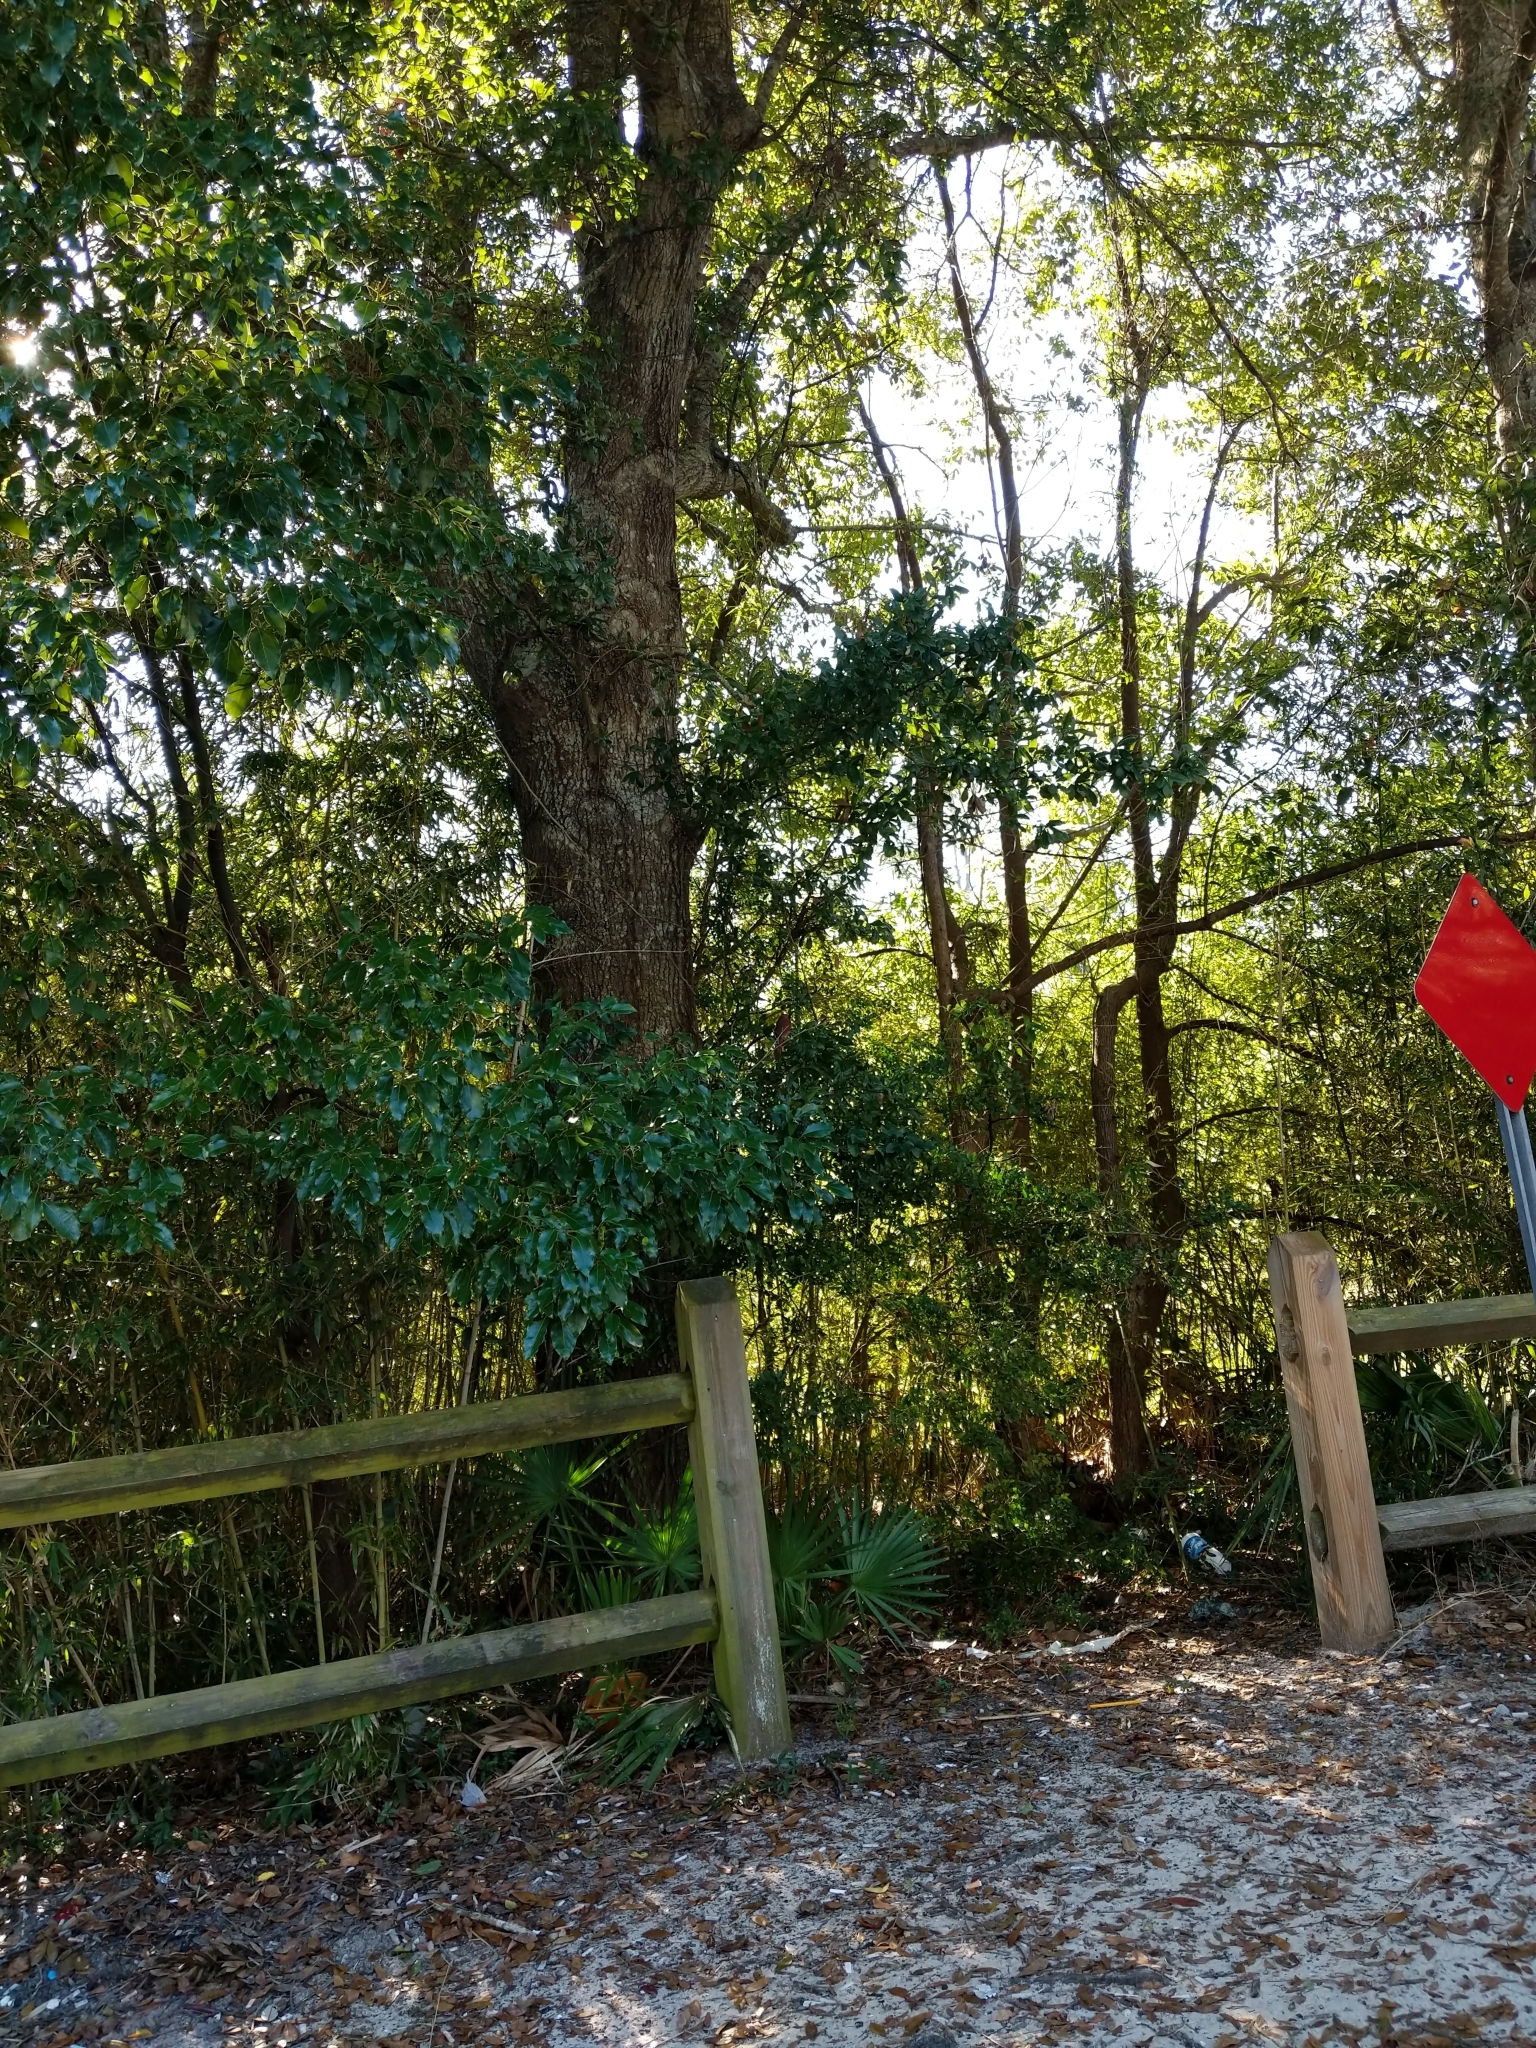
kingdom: Animalia
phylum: Chordata
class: Aves
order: Passeriformes
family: Cardinalidae
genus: Cardinalis
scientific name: Cardinalis cardinalis
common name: Northern cardinal
